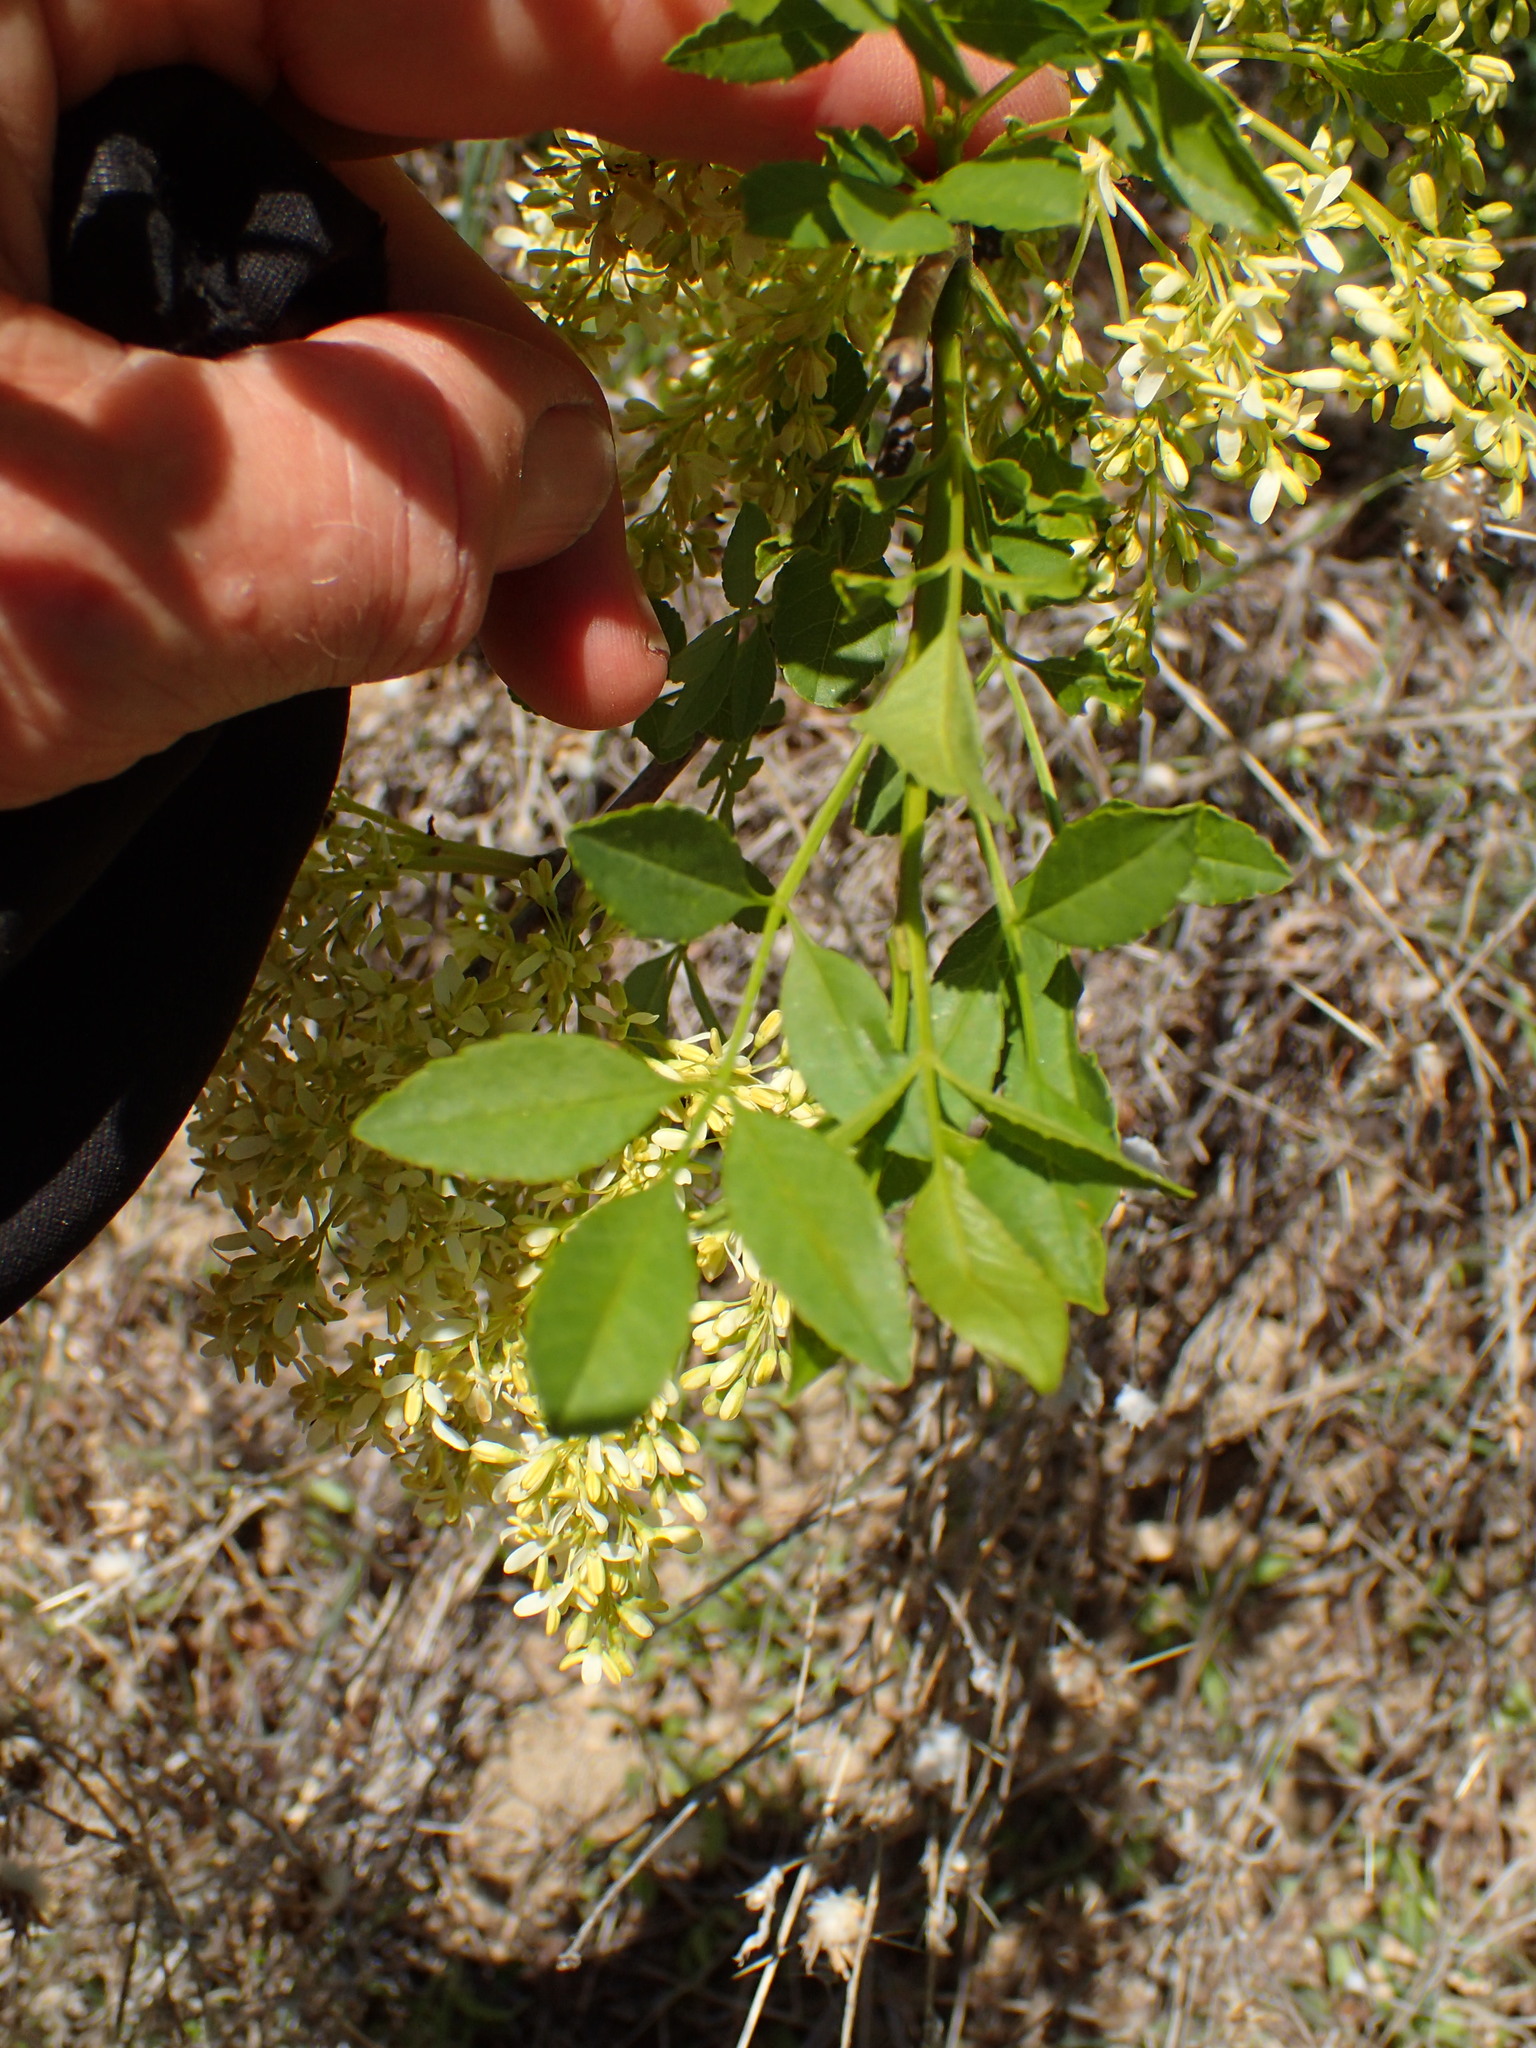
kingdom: Plantae
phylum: Tracheophyta
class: Magnoliopsida
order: Lamiales
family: Oleaceae
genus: Fraxinus
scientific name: Fraxinus dipetala
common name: California ash
